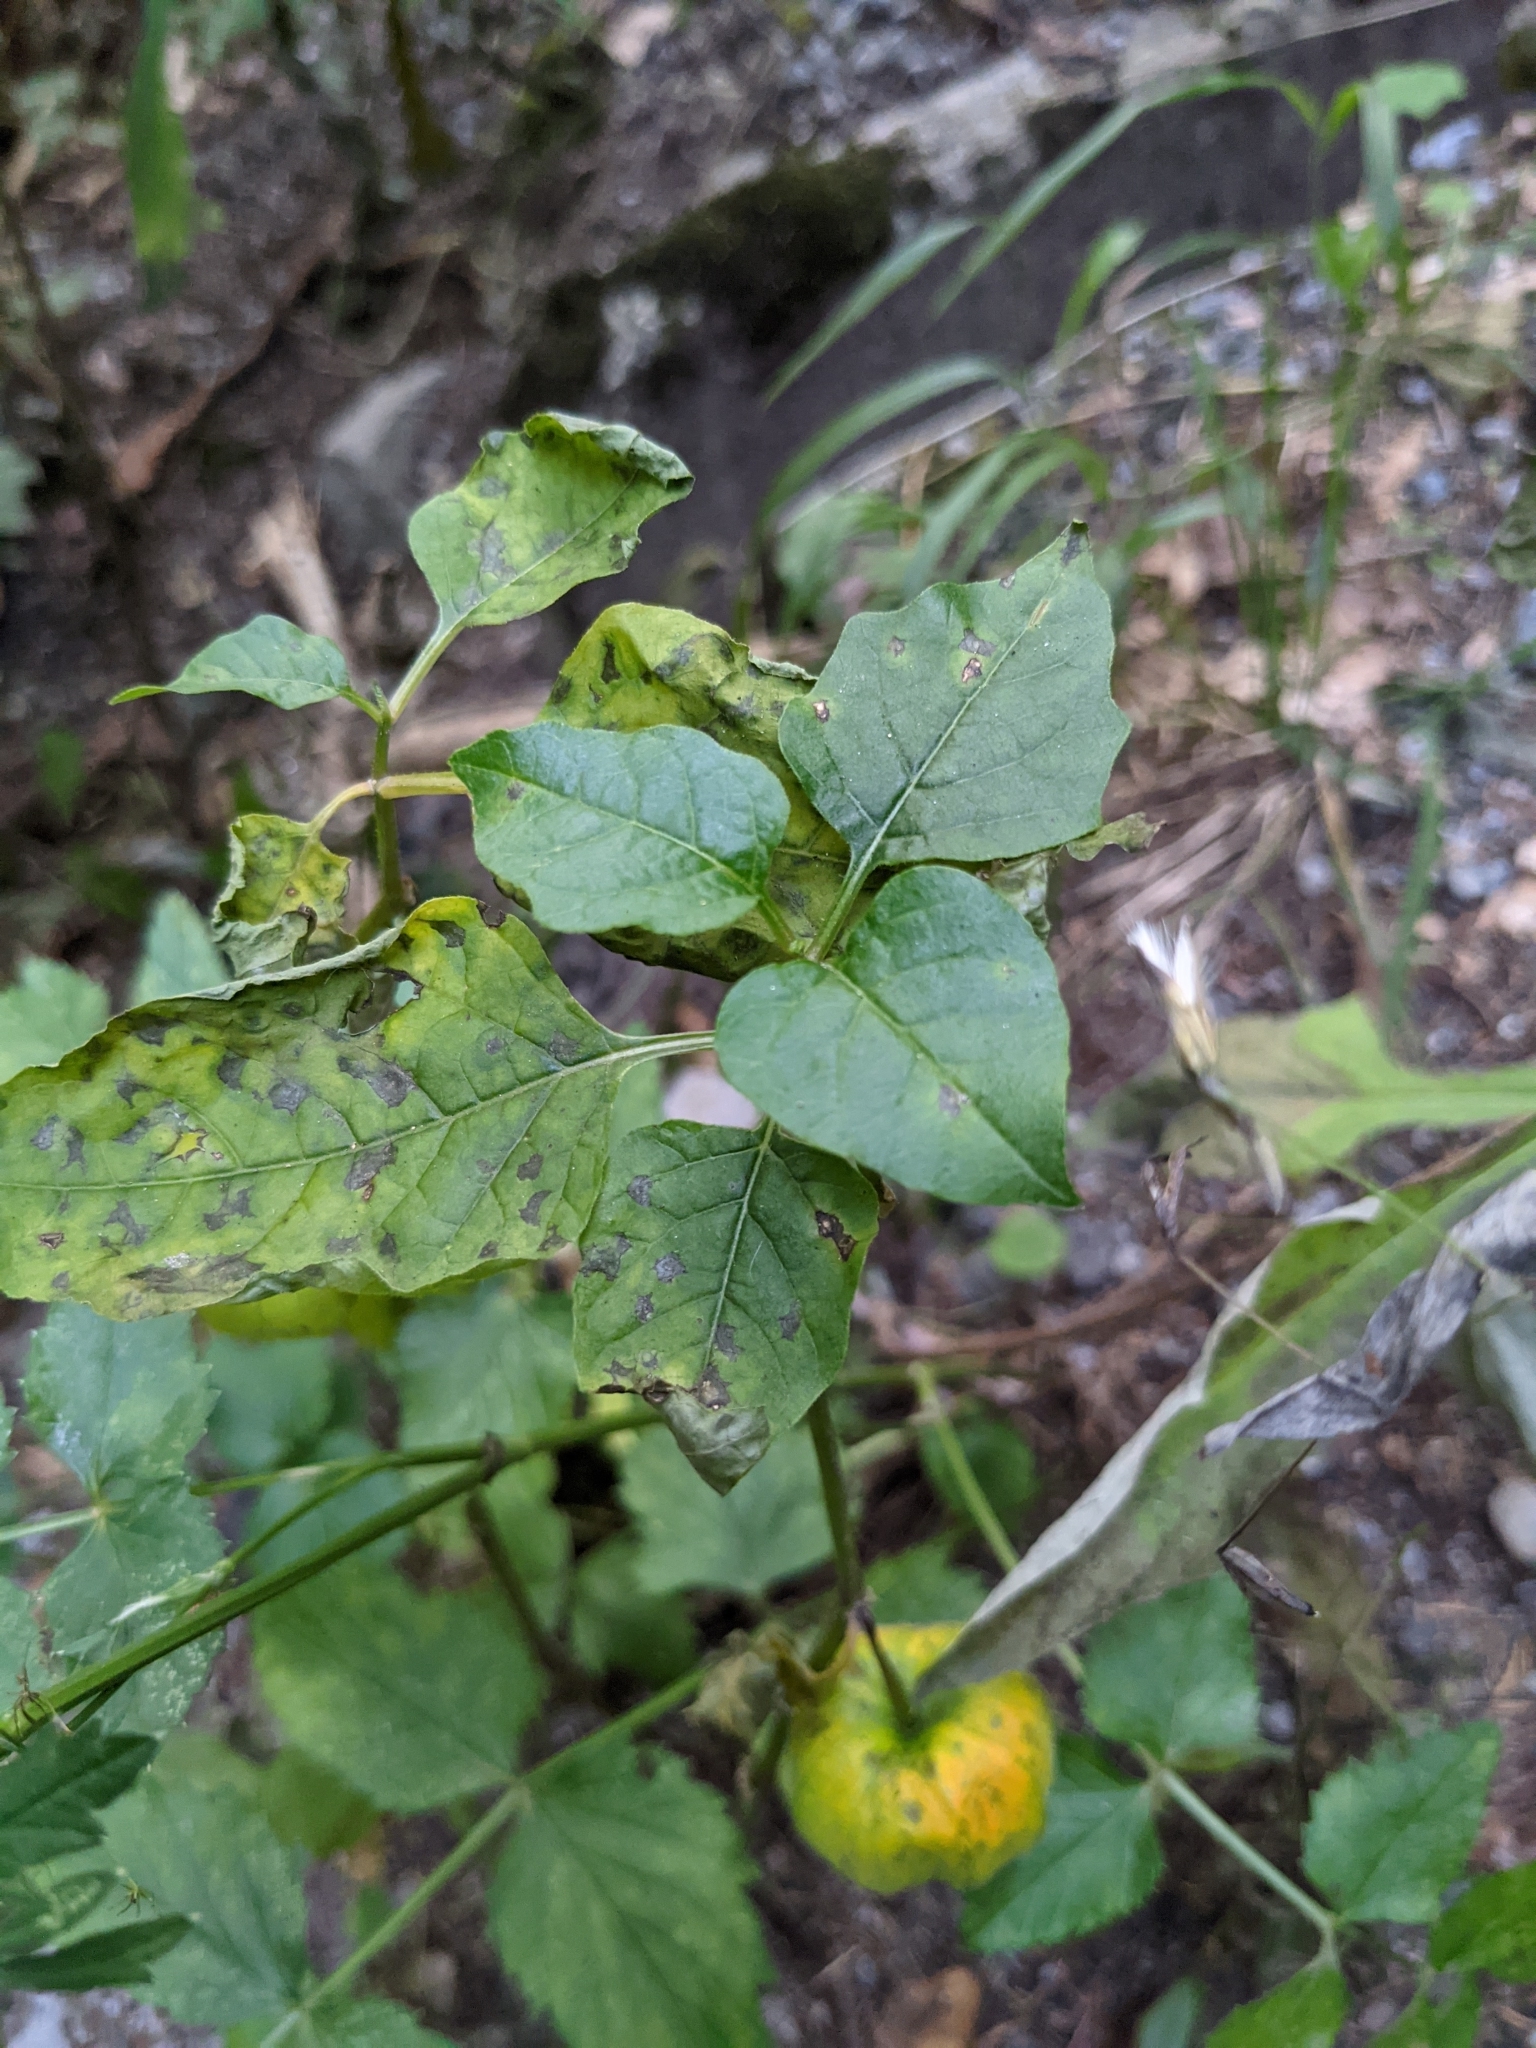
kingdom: Plantae
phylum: Tracheophyta
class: Magnoliopsida
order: Solanales
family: Solanaceae
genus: Alkekengi
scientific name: Alkekengi officinarum
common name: Japanese-lantern
